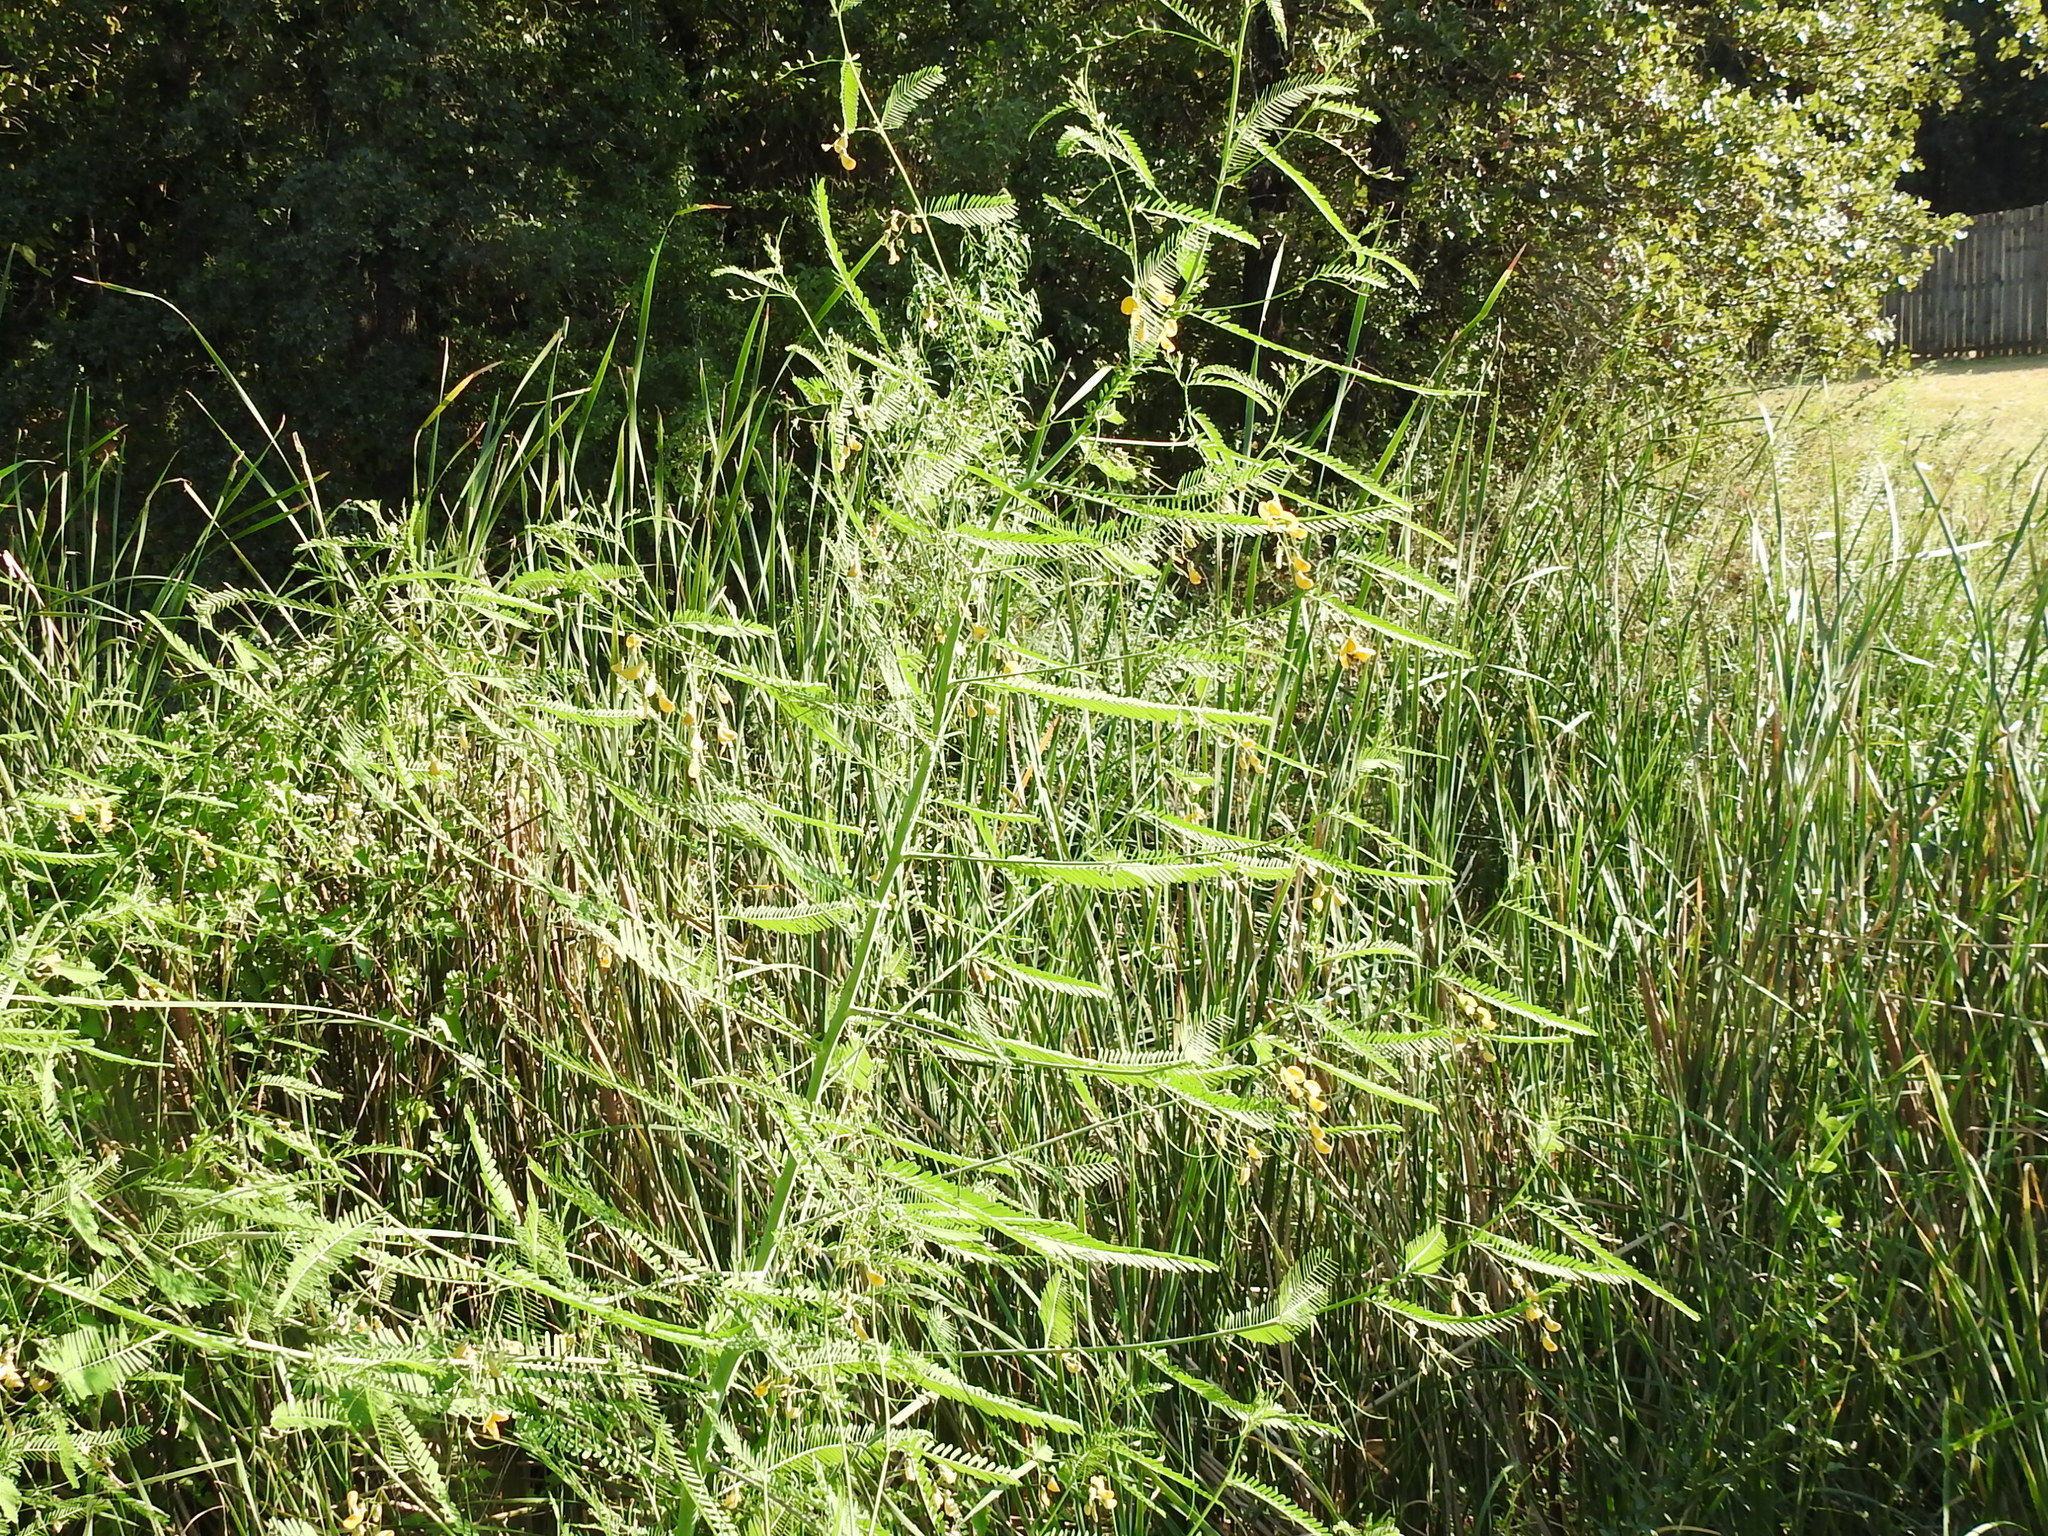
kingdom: Plantae
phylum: Tracheophyta
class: Magnoliopsida
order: Fabales
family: Fabaceae
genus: Sesbania
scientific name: Sesbania herbacea
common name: Bigpod sesbania
